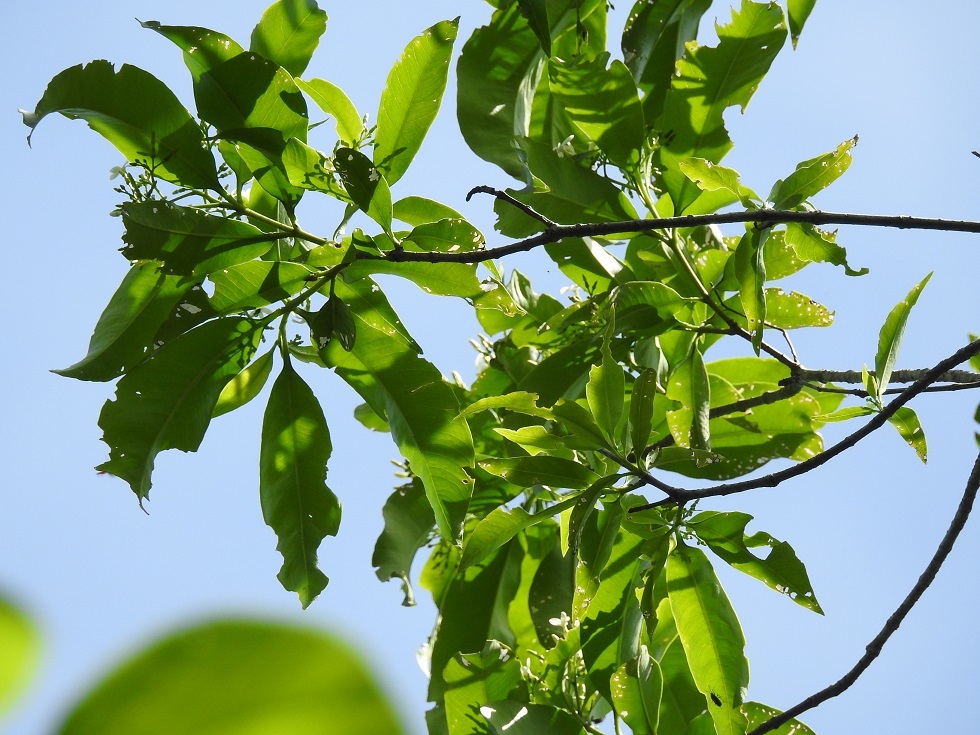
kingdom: Plantae
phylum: Tracheophyta
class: Magnoliopsida
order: Gentianales
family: Apocynaceae
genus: Tabernaemontana
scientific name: Tabernaemontana alba
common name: White milkwood
